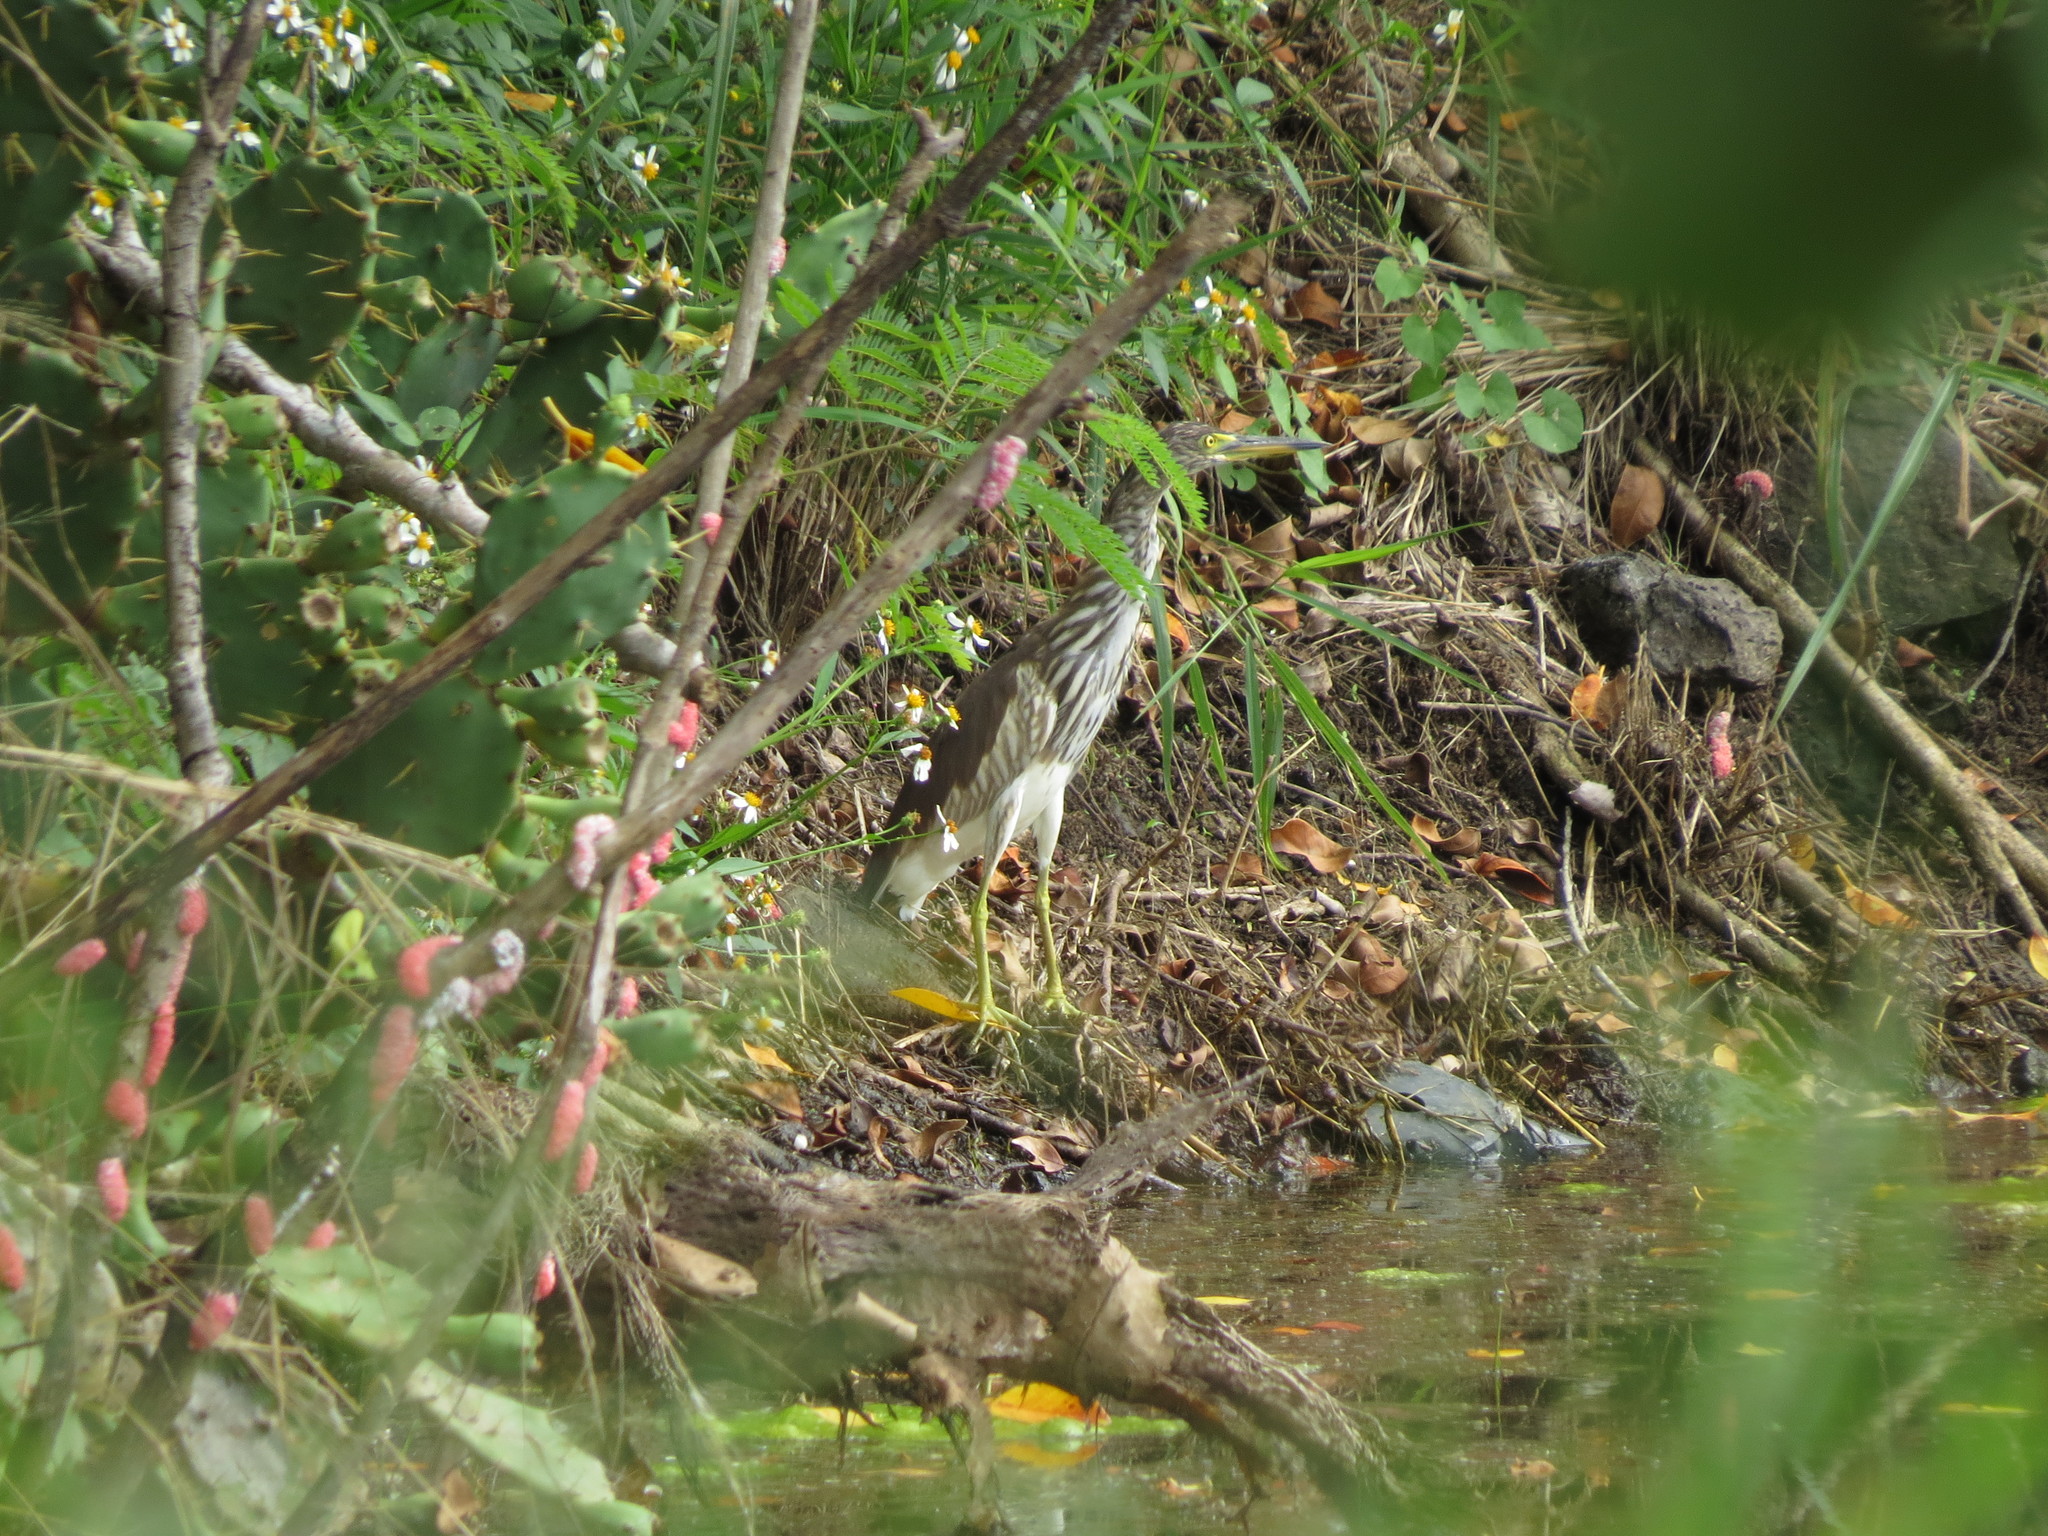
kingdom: Animalia
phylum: Chordata
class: Aves
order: Pelecaniformes
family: Ardeidae
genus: Ardeola
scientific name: Ardeola bacchus
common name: Chinese pond heron
